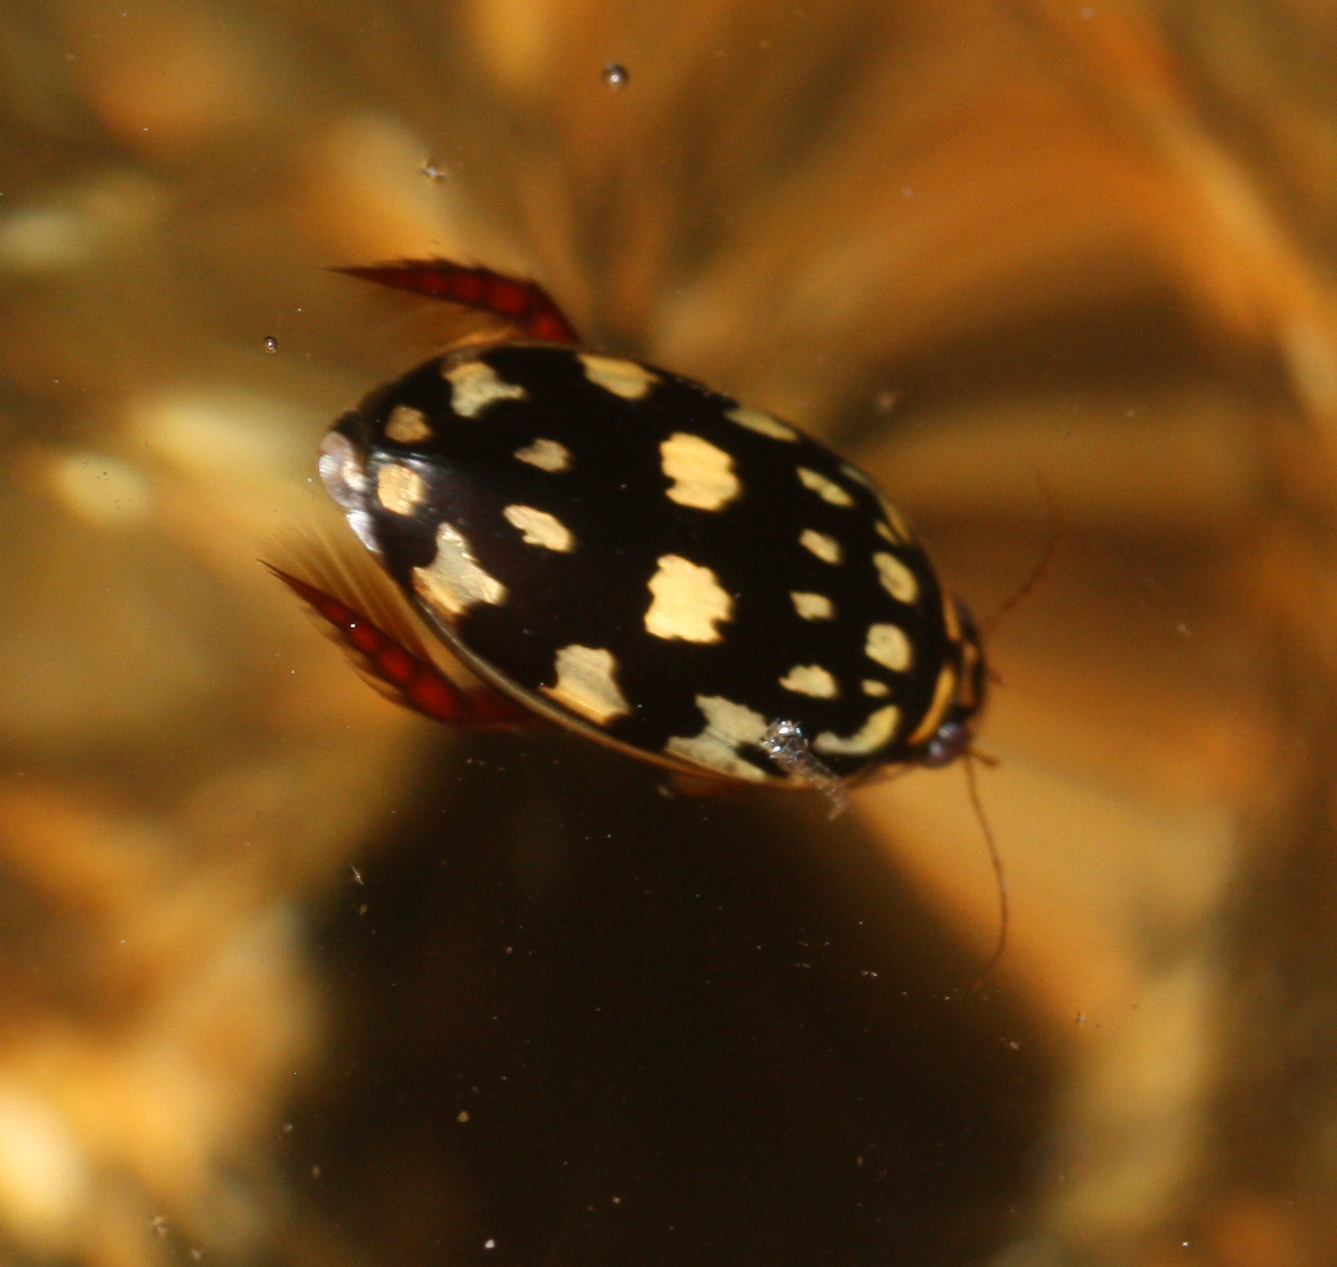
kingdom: Animalia
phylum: Arthropoda
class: Insecta
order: Coleoptera
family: Dytiscidae
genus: Thermonectus
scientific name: Thermonectus marmoratus
